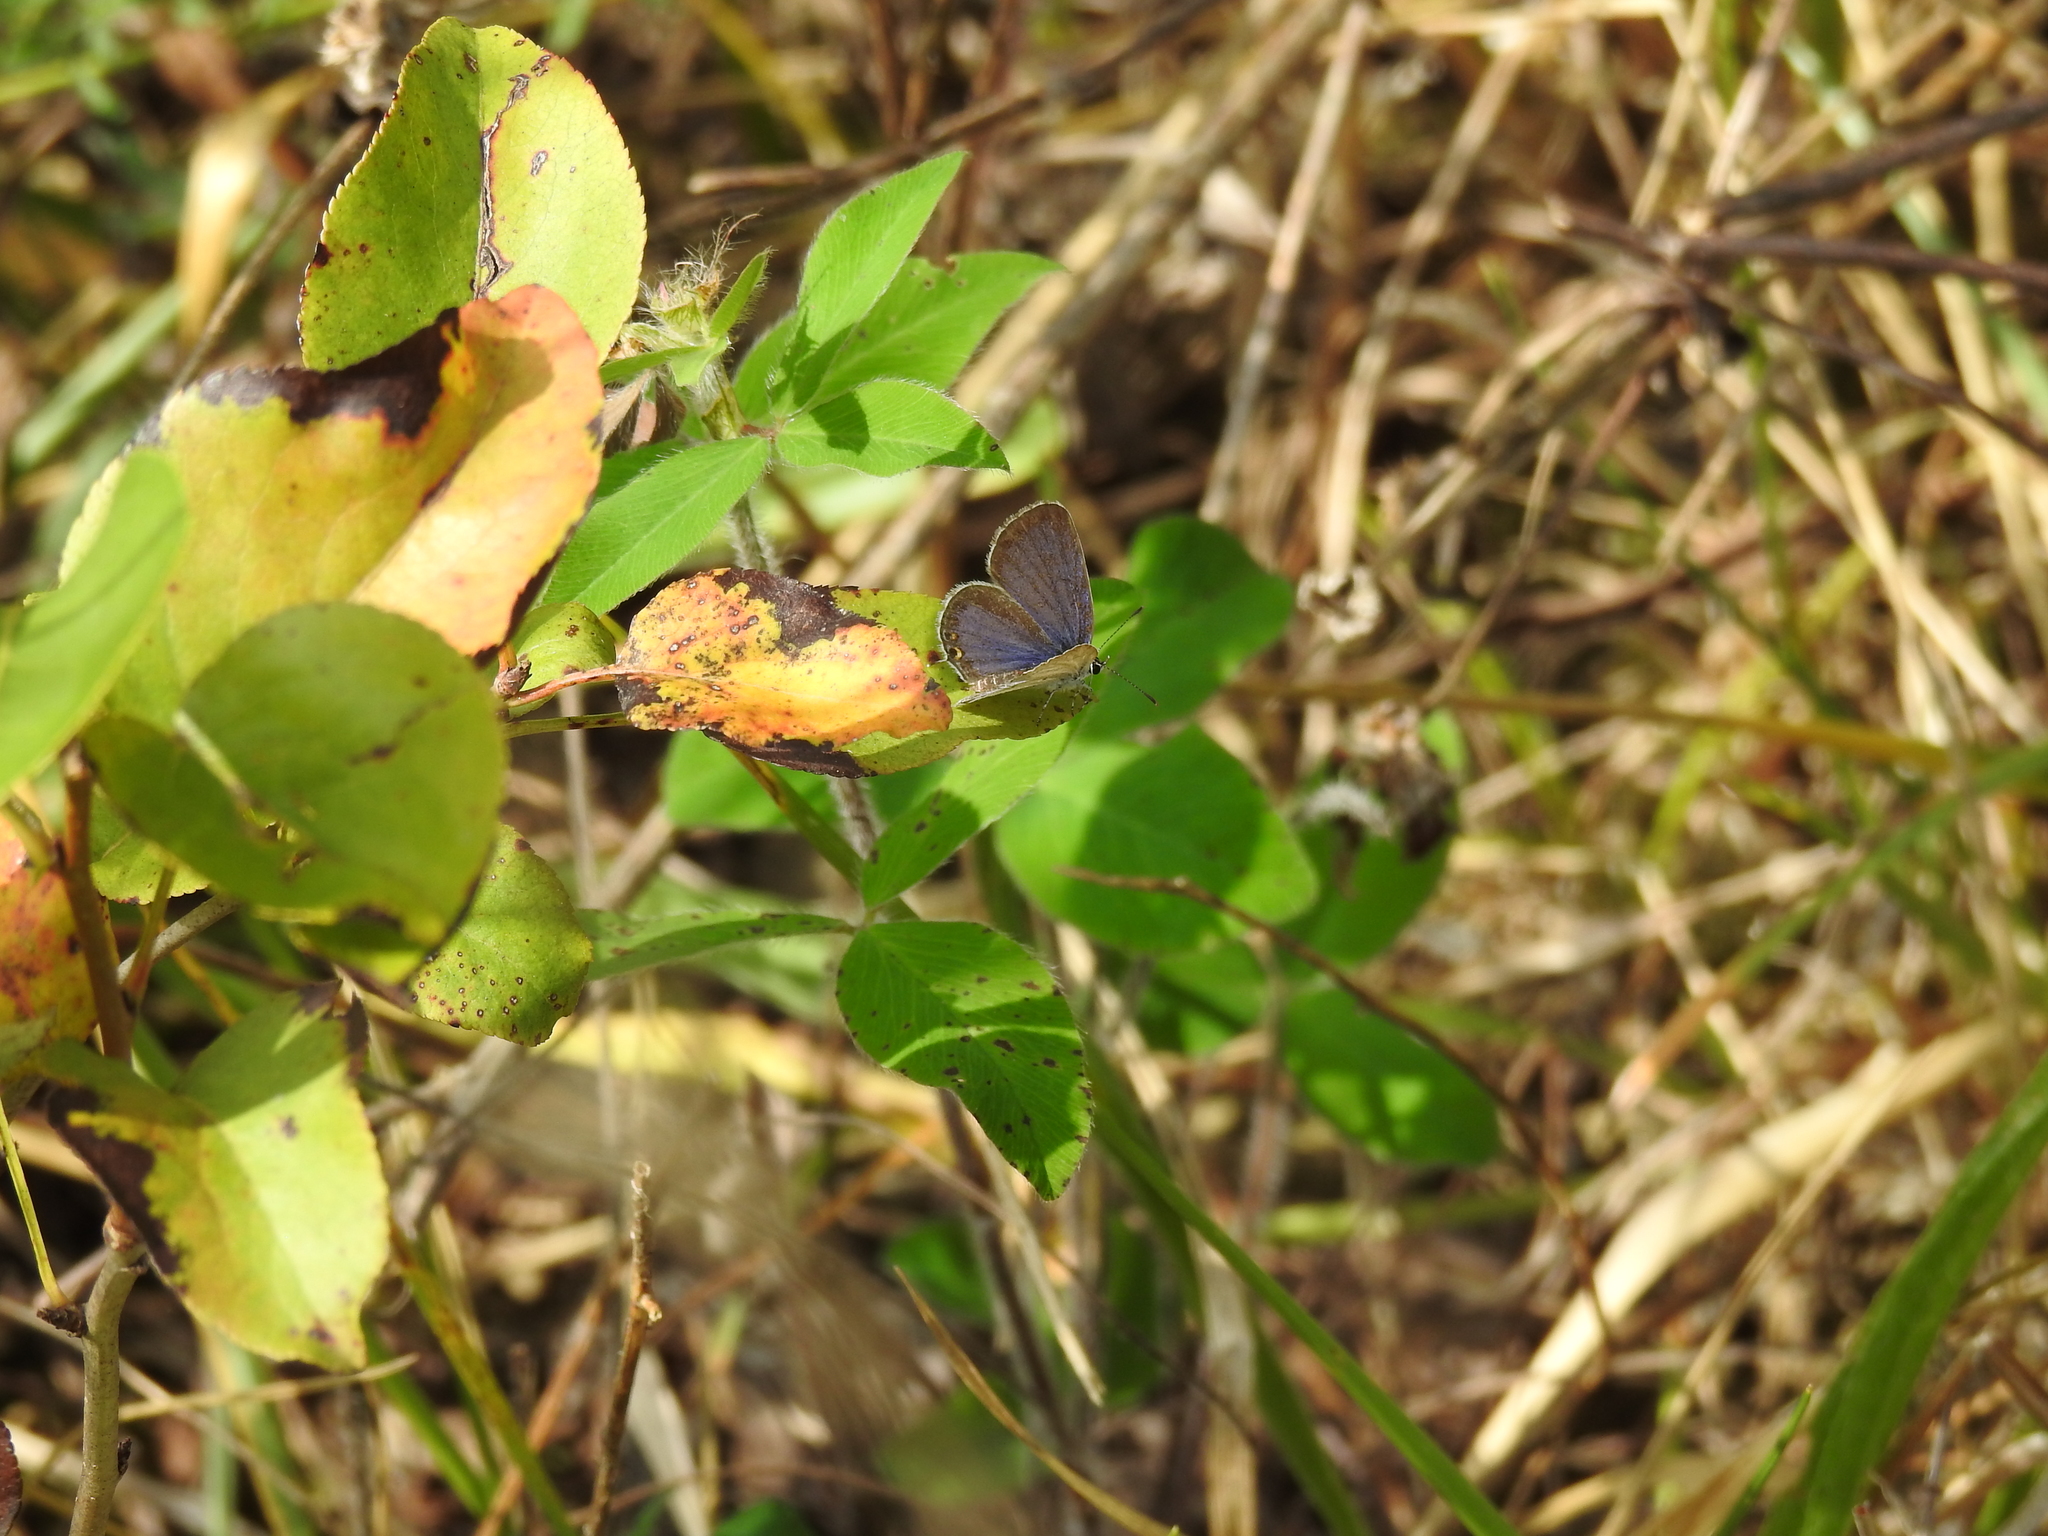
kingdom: Animalia
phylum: Arthropoda
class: Insecta
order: Lepidoptera
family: Lycaenidae
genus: Elkalyce
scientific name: Elkalyce comyntas
